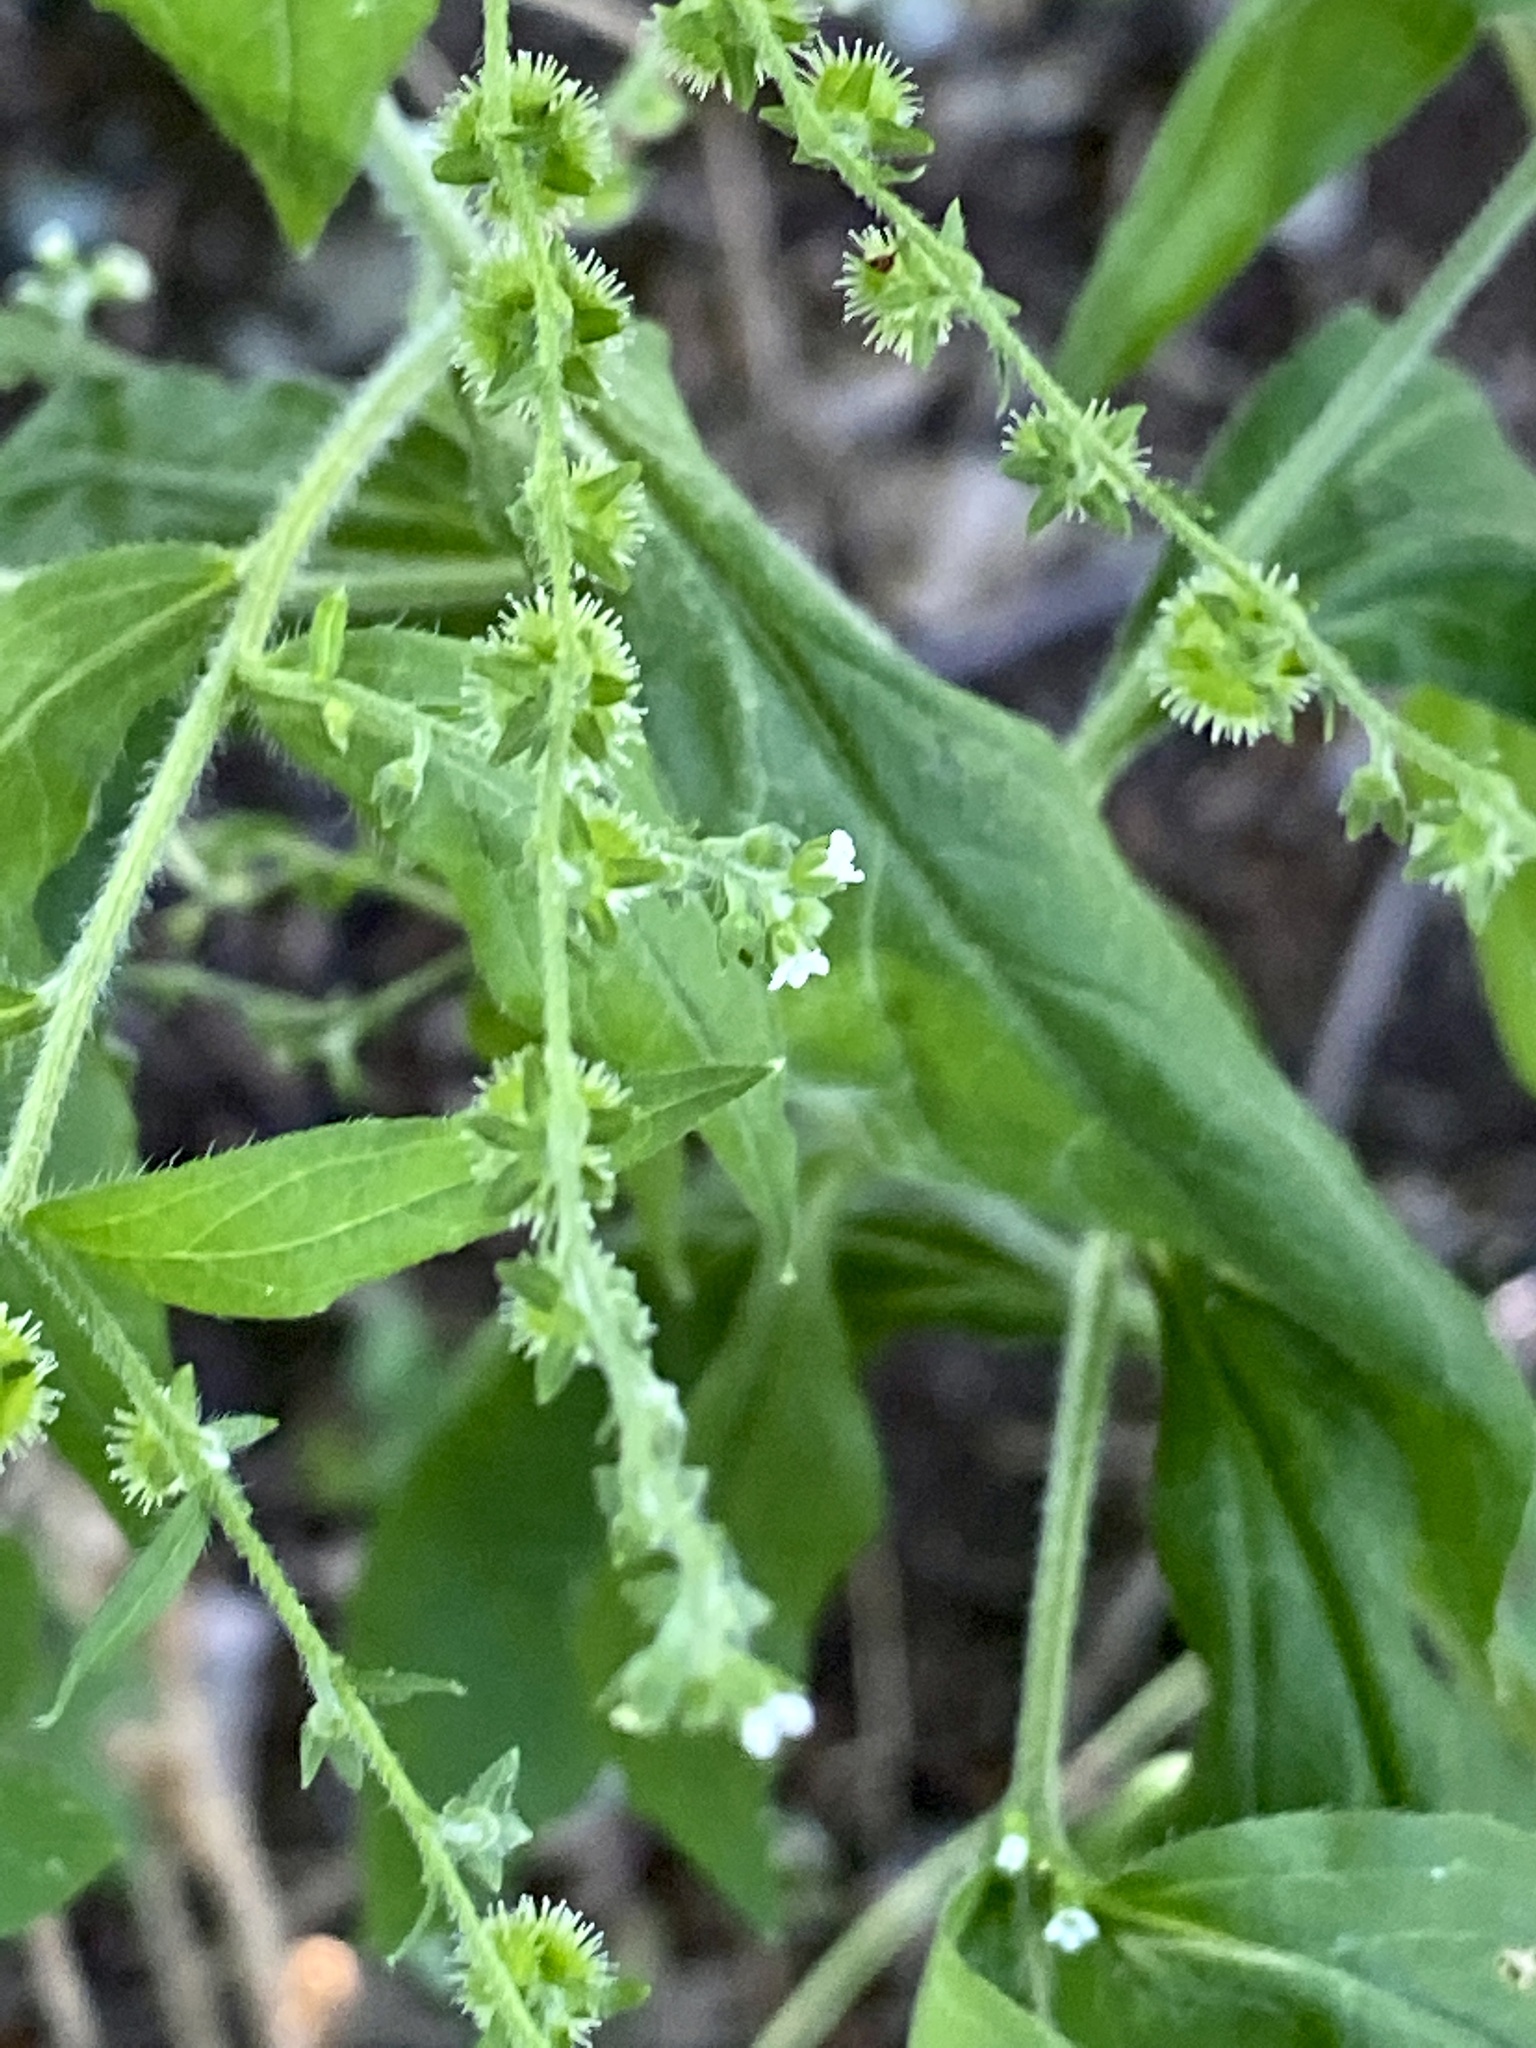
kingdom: Plantae
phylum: Tracheophyta
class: Magnoliopsida
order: Boraginales
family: Boraginaceae
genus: Hackelia
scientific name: Hackelia virginiana
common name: Beggar's-lice
